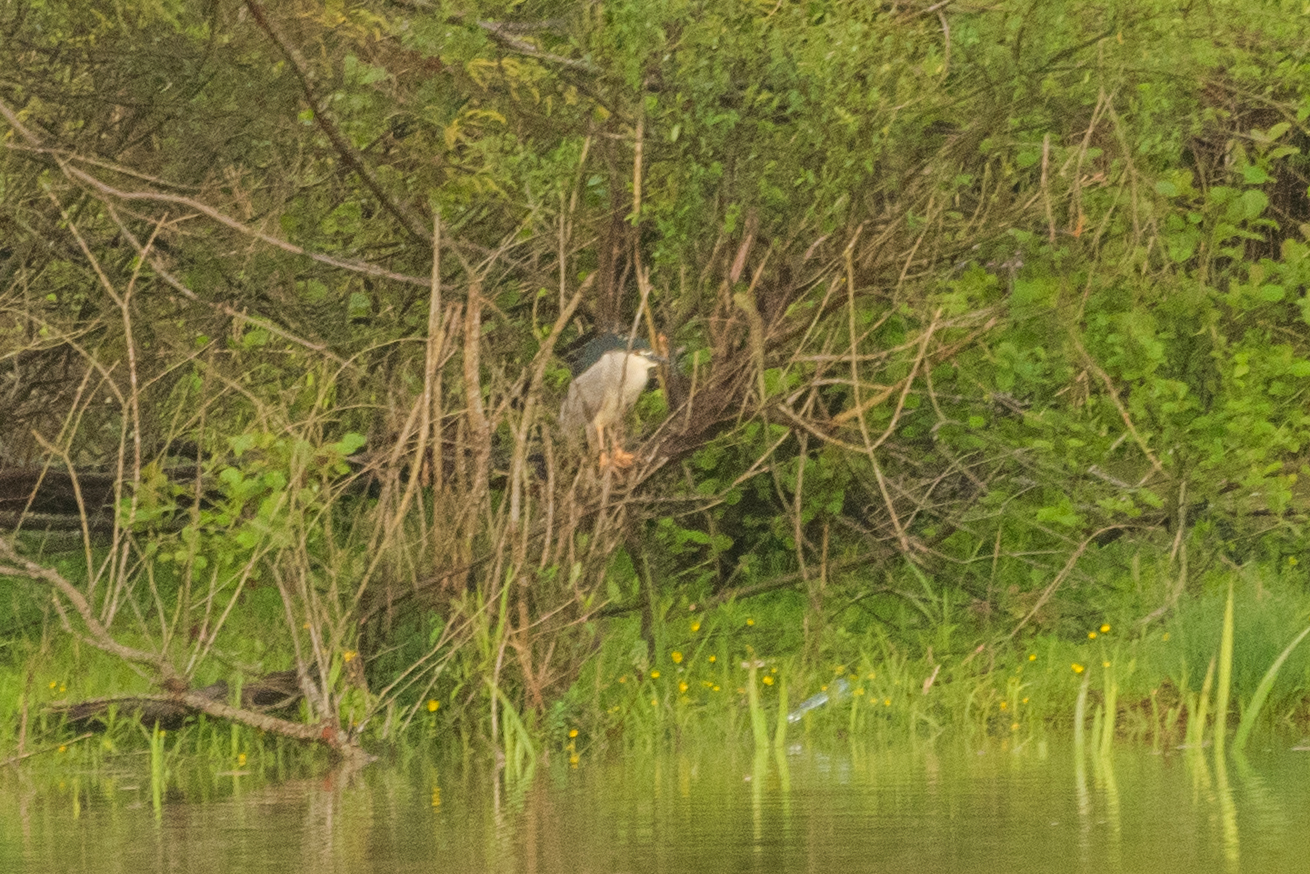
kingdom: Animalia
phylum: Chordata
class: Aves
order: Pelecaniformes
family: Ardeidae
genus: Nycticorax
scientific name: Nycticorax nycticorax
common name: Black-crowned night heron
